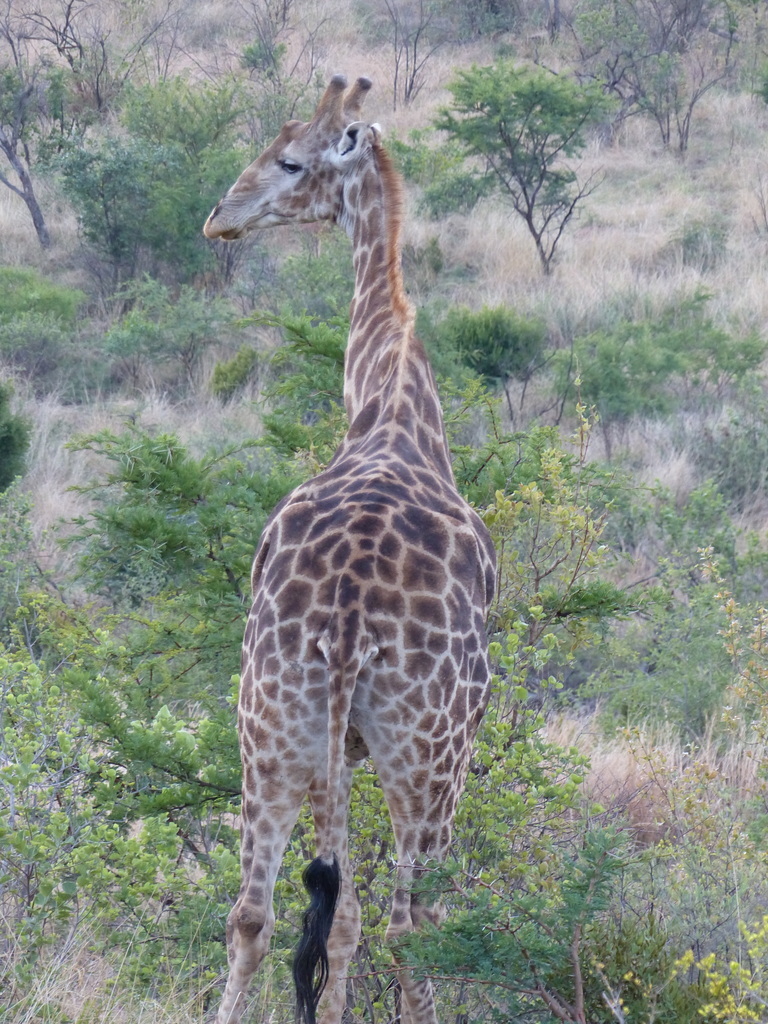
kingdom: Animalia
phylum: Chordata
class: Mammalia
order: Artiodactyla
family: Giraffidae
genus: Giraffa
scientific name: Giraffa giraffa
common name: Southern giraffe
